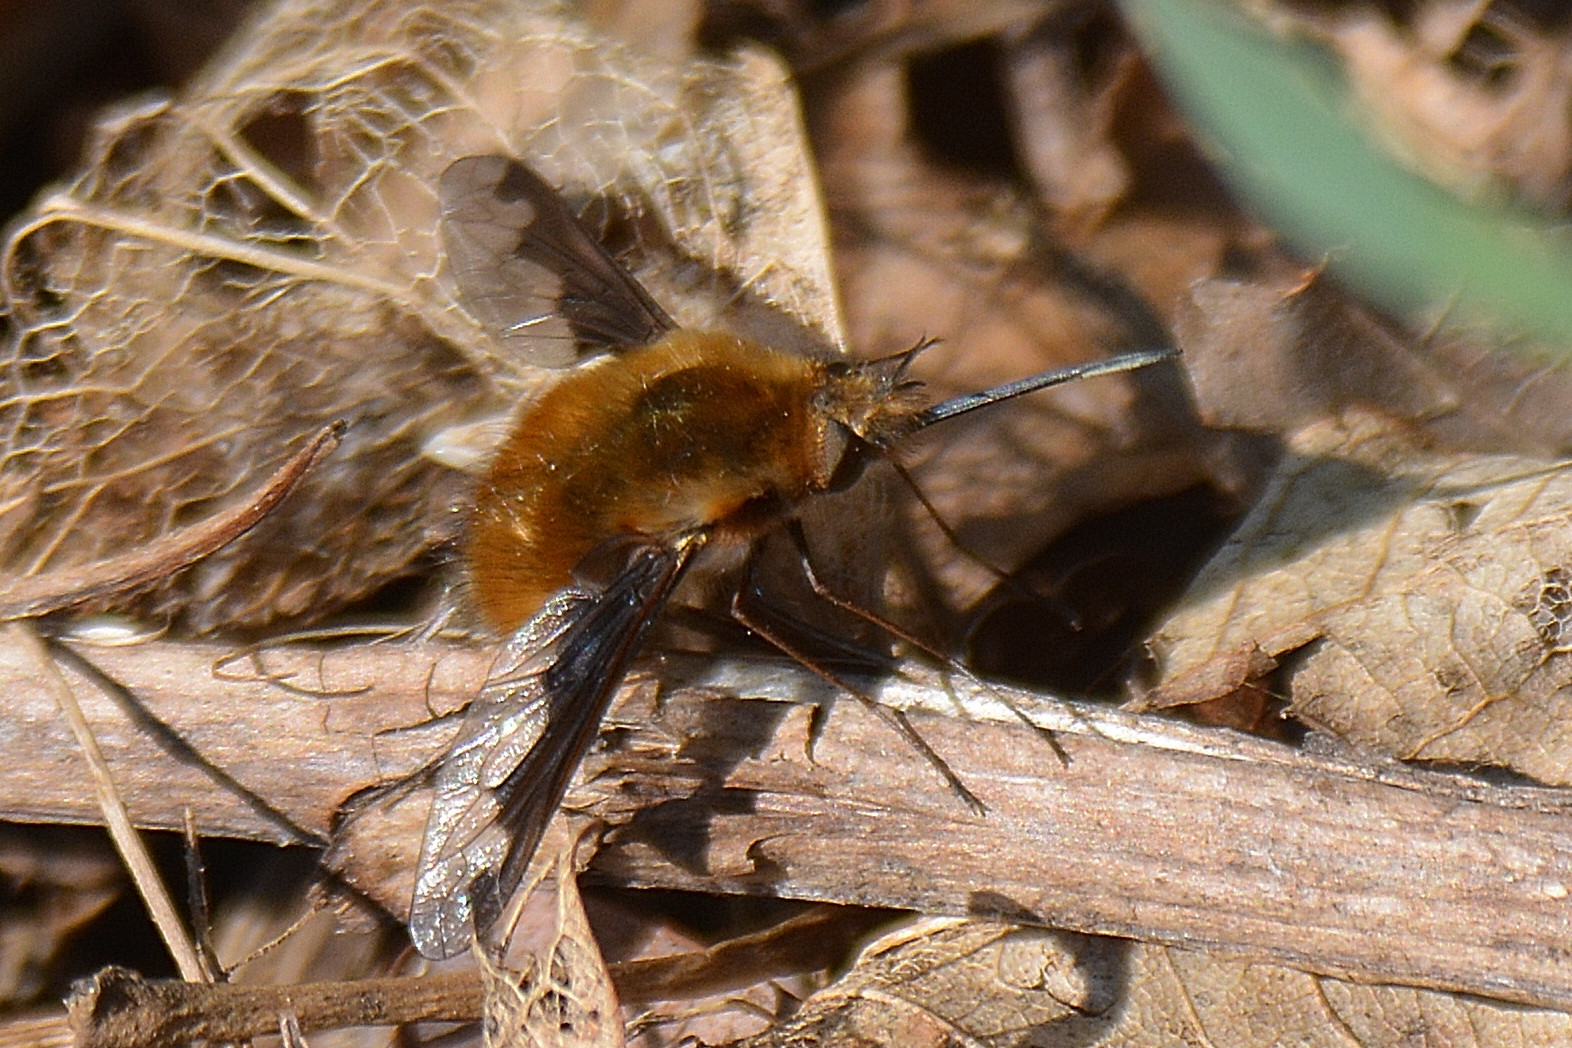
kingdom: Animalia
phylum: Arthropoda
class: Insecta
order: Diptera
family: Bombyliidae
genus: Bombylius
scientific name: Bombylius major
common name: Bee fly
